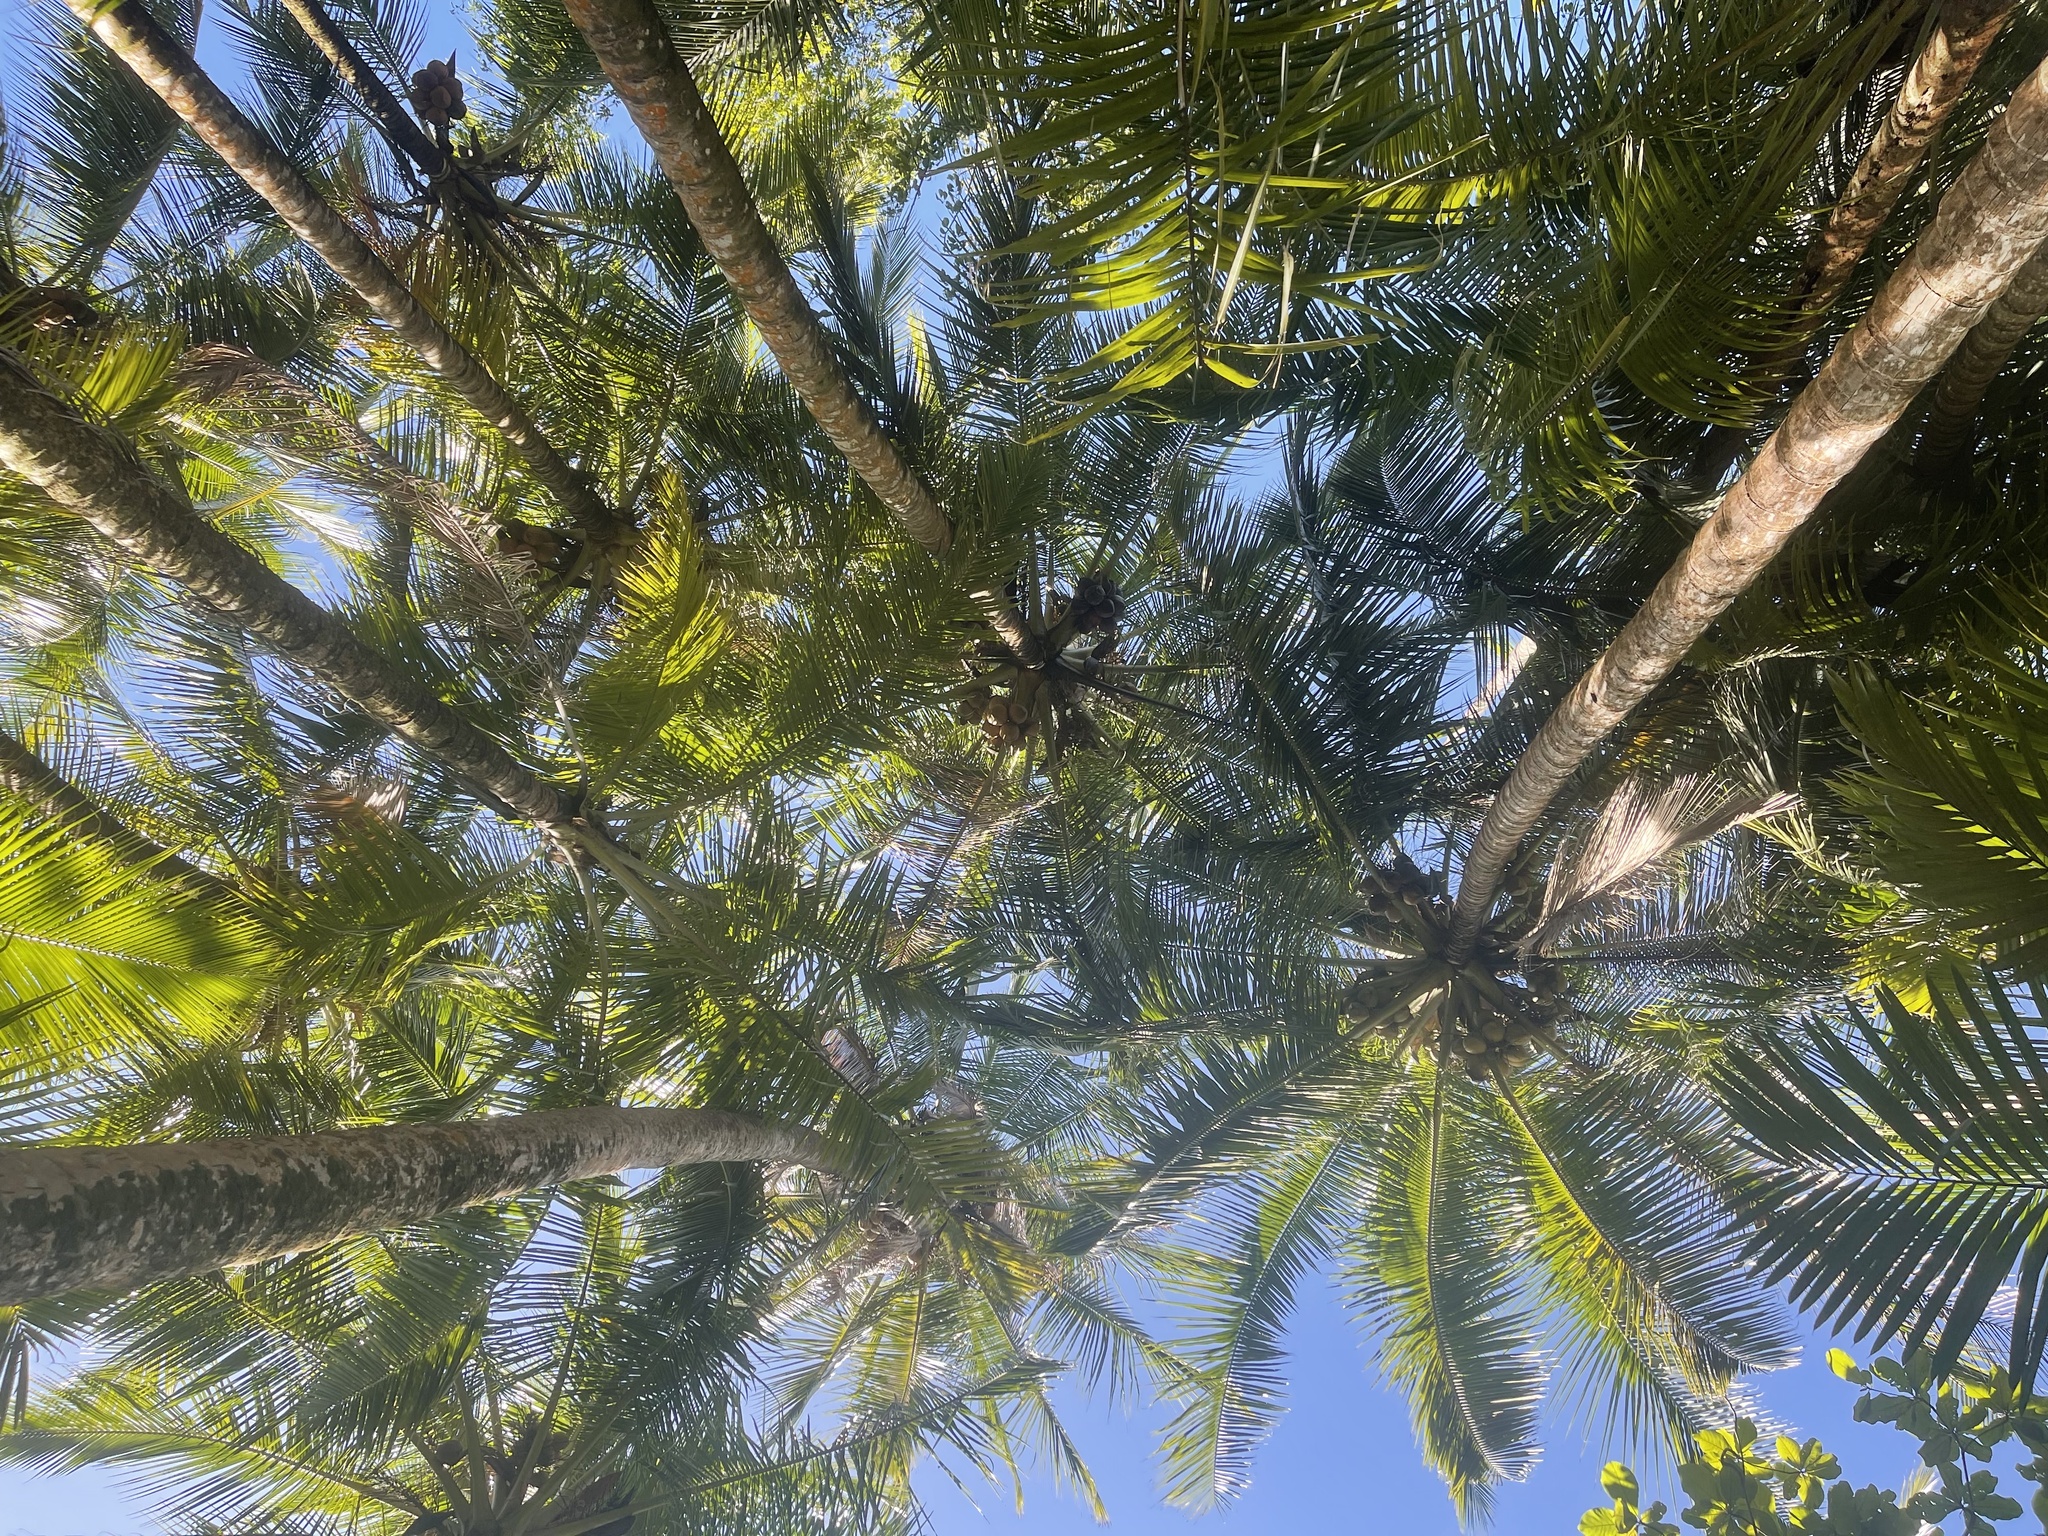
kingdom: Plantae
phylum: Tracheophyta
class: Liliopsida
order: Arecales
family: Arecaceae
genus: Cocos
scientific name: Cocos nucifera
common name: Coconut palm
